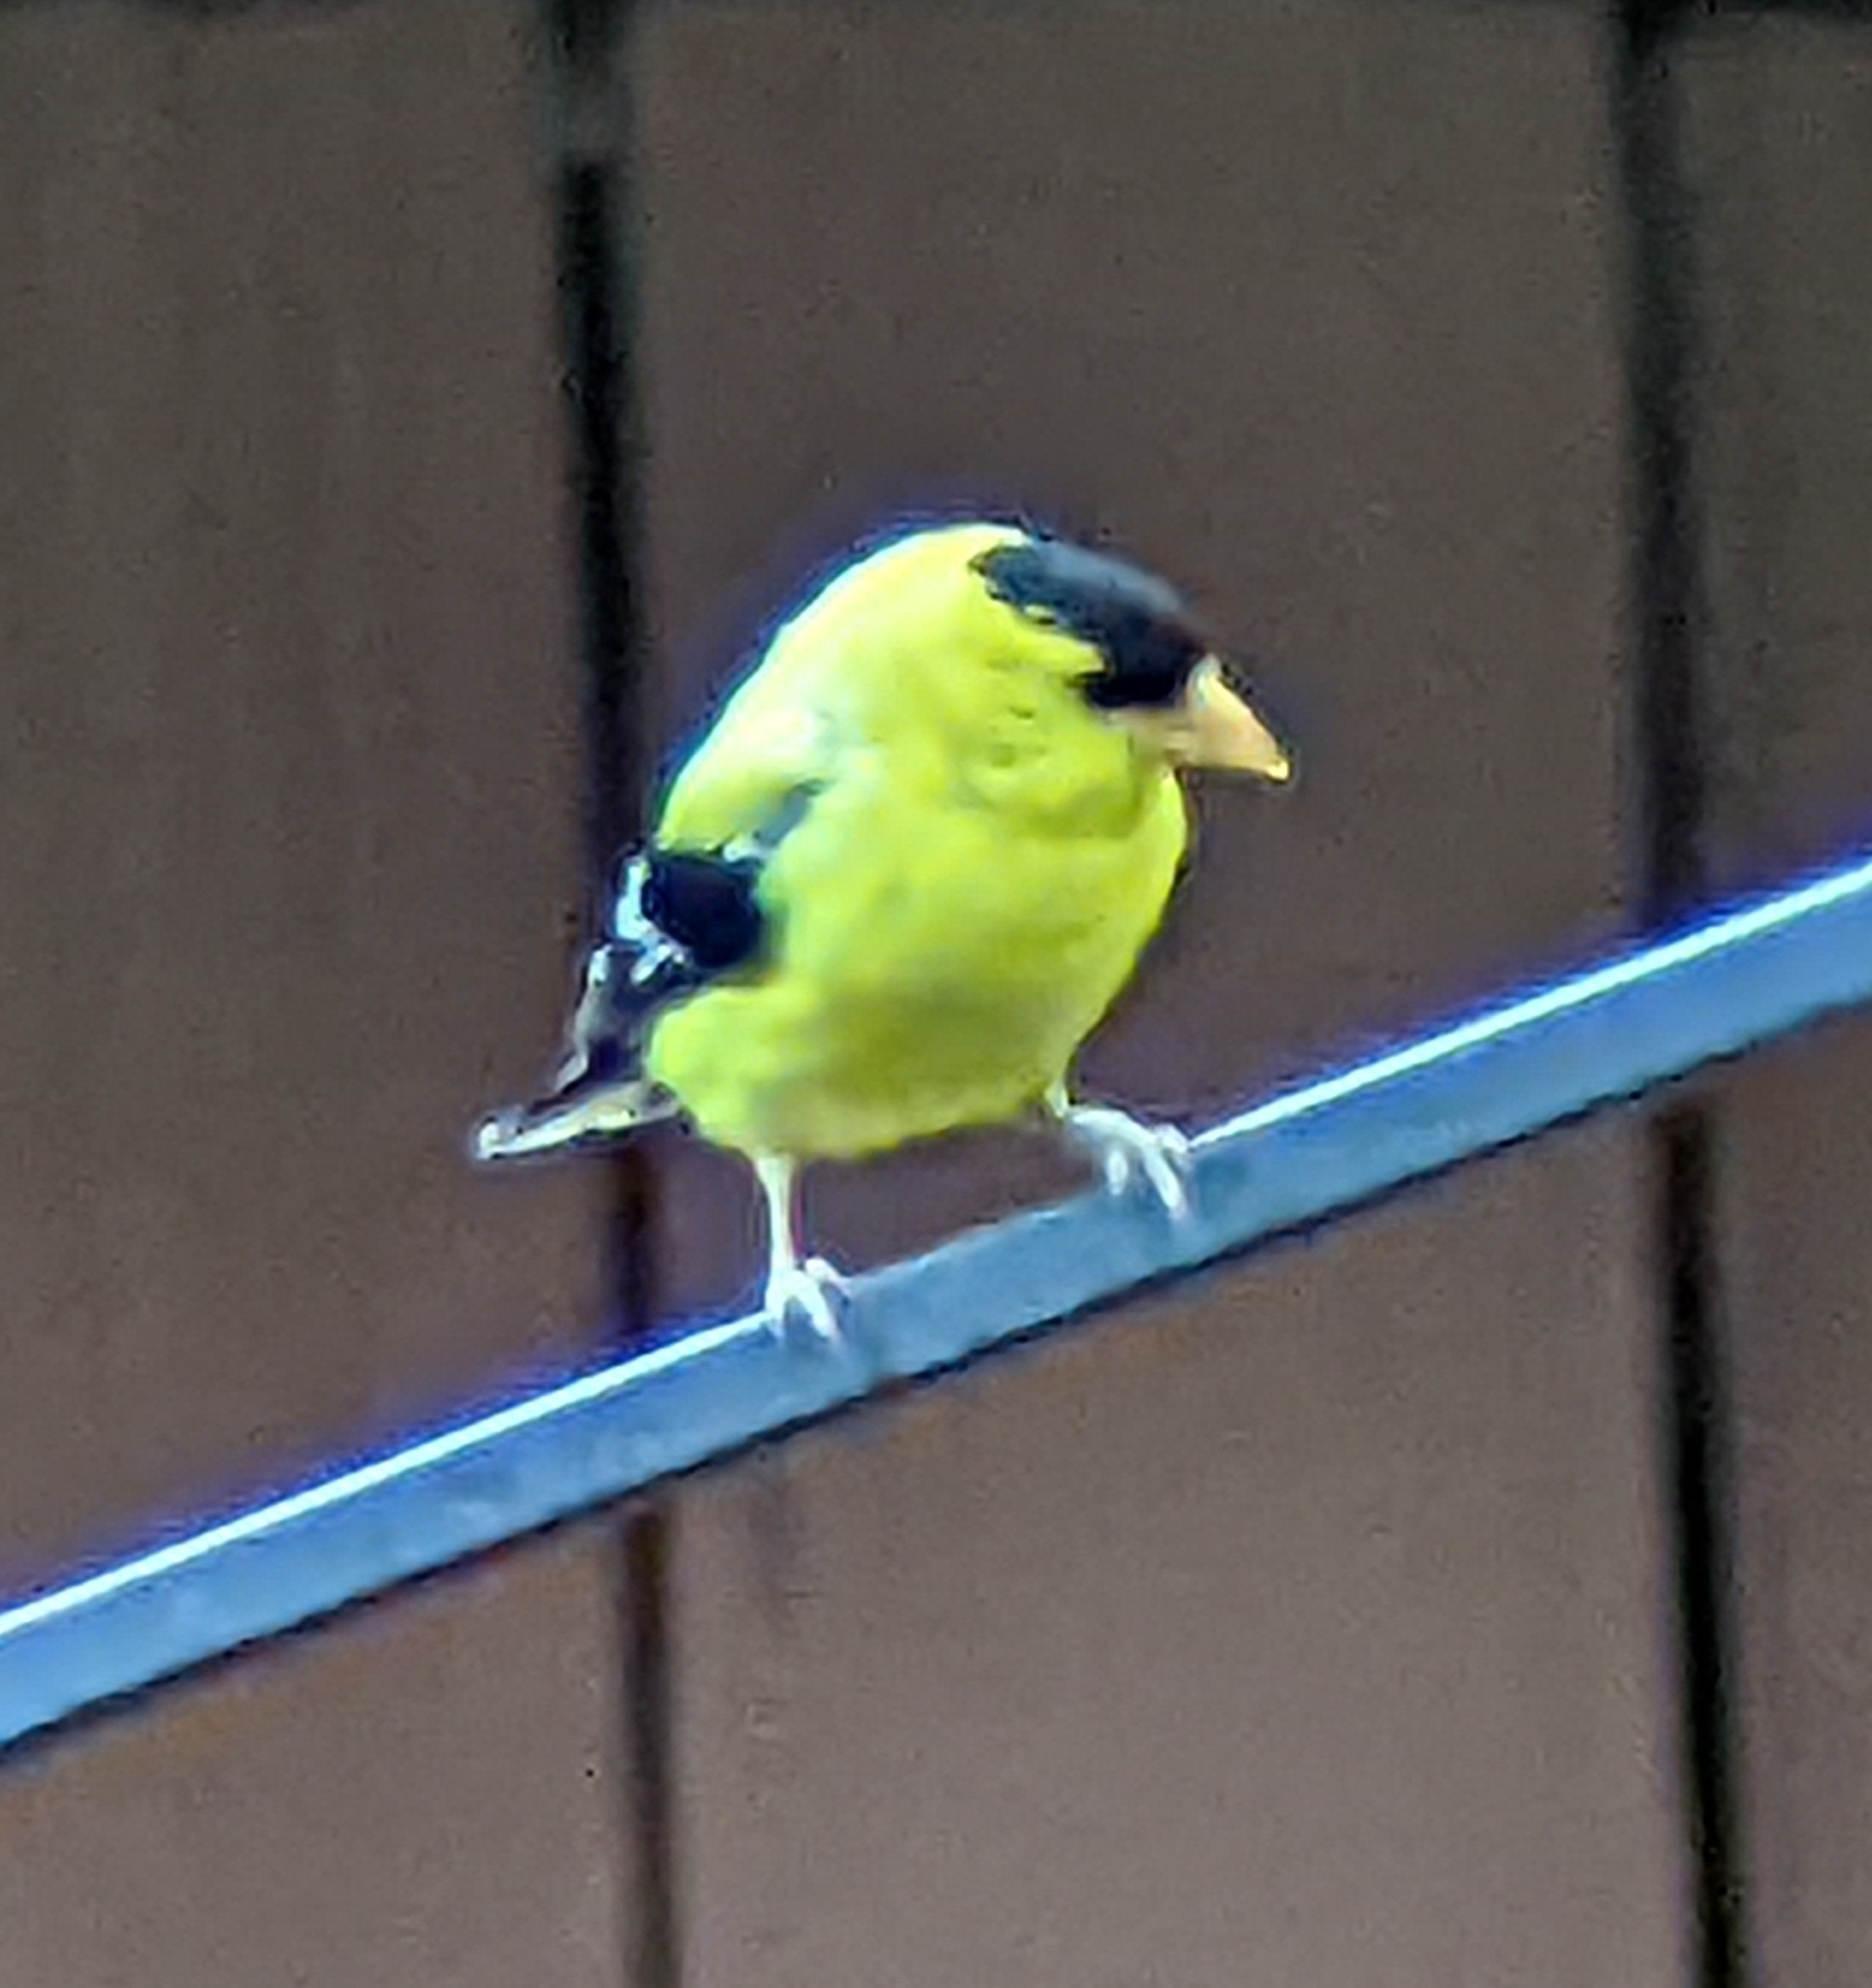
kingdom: Animalia
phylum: Chordata
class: Aves
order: Passeriformes
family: Fringillidae
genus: Spinus
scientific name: Spinus tristis
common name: American goldfinch
